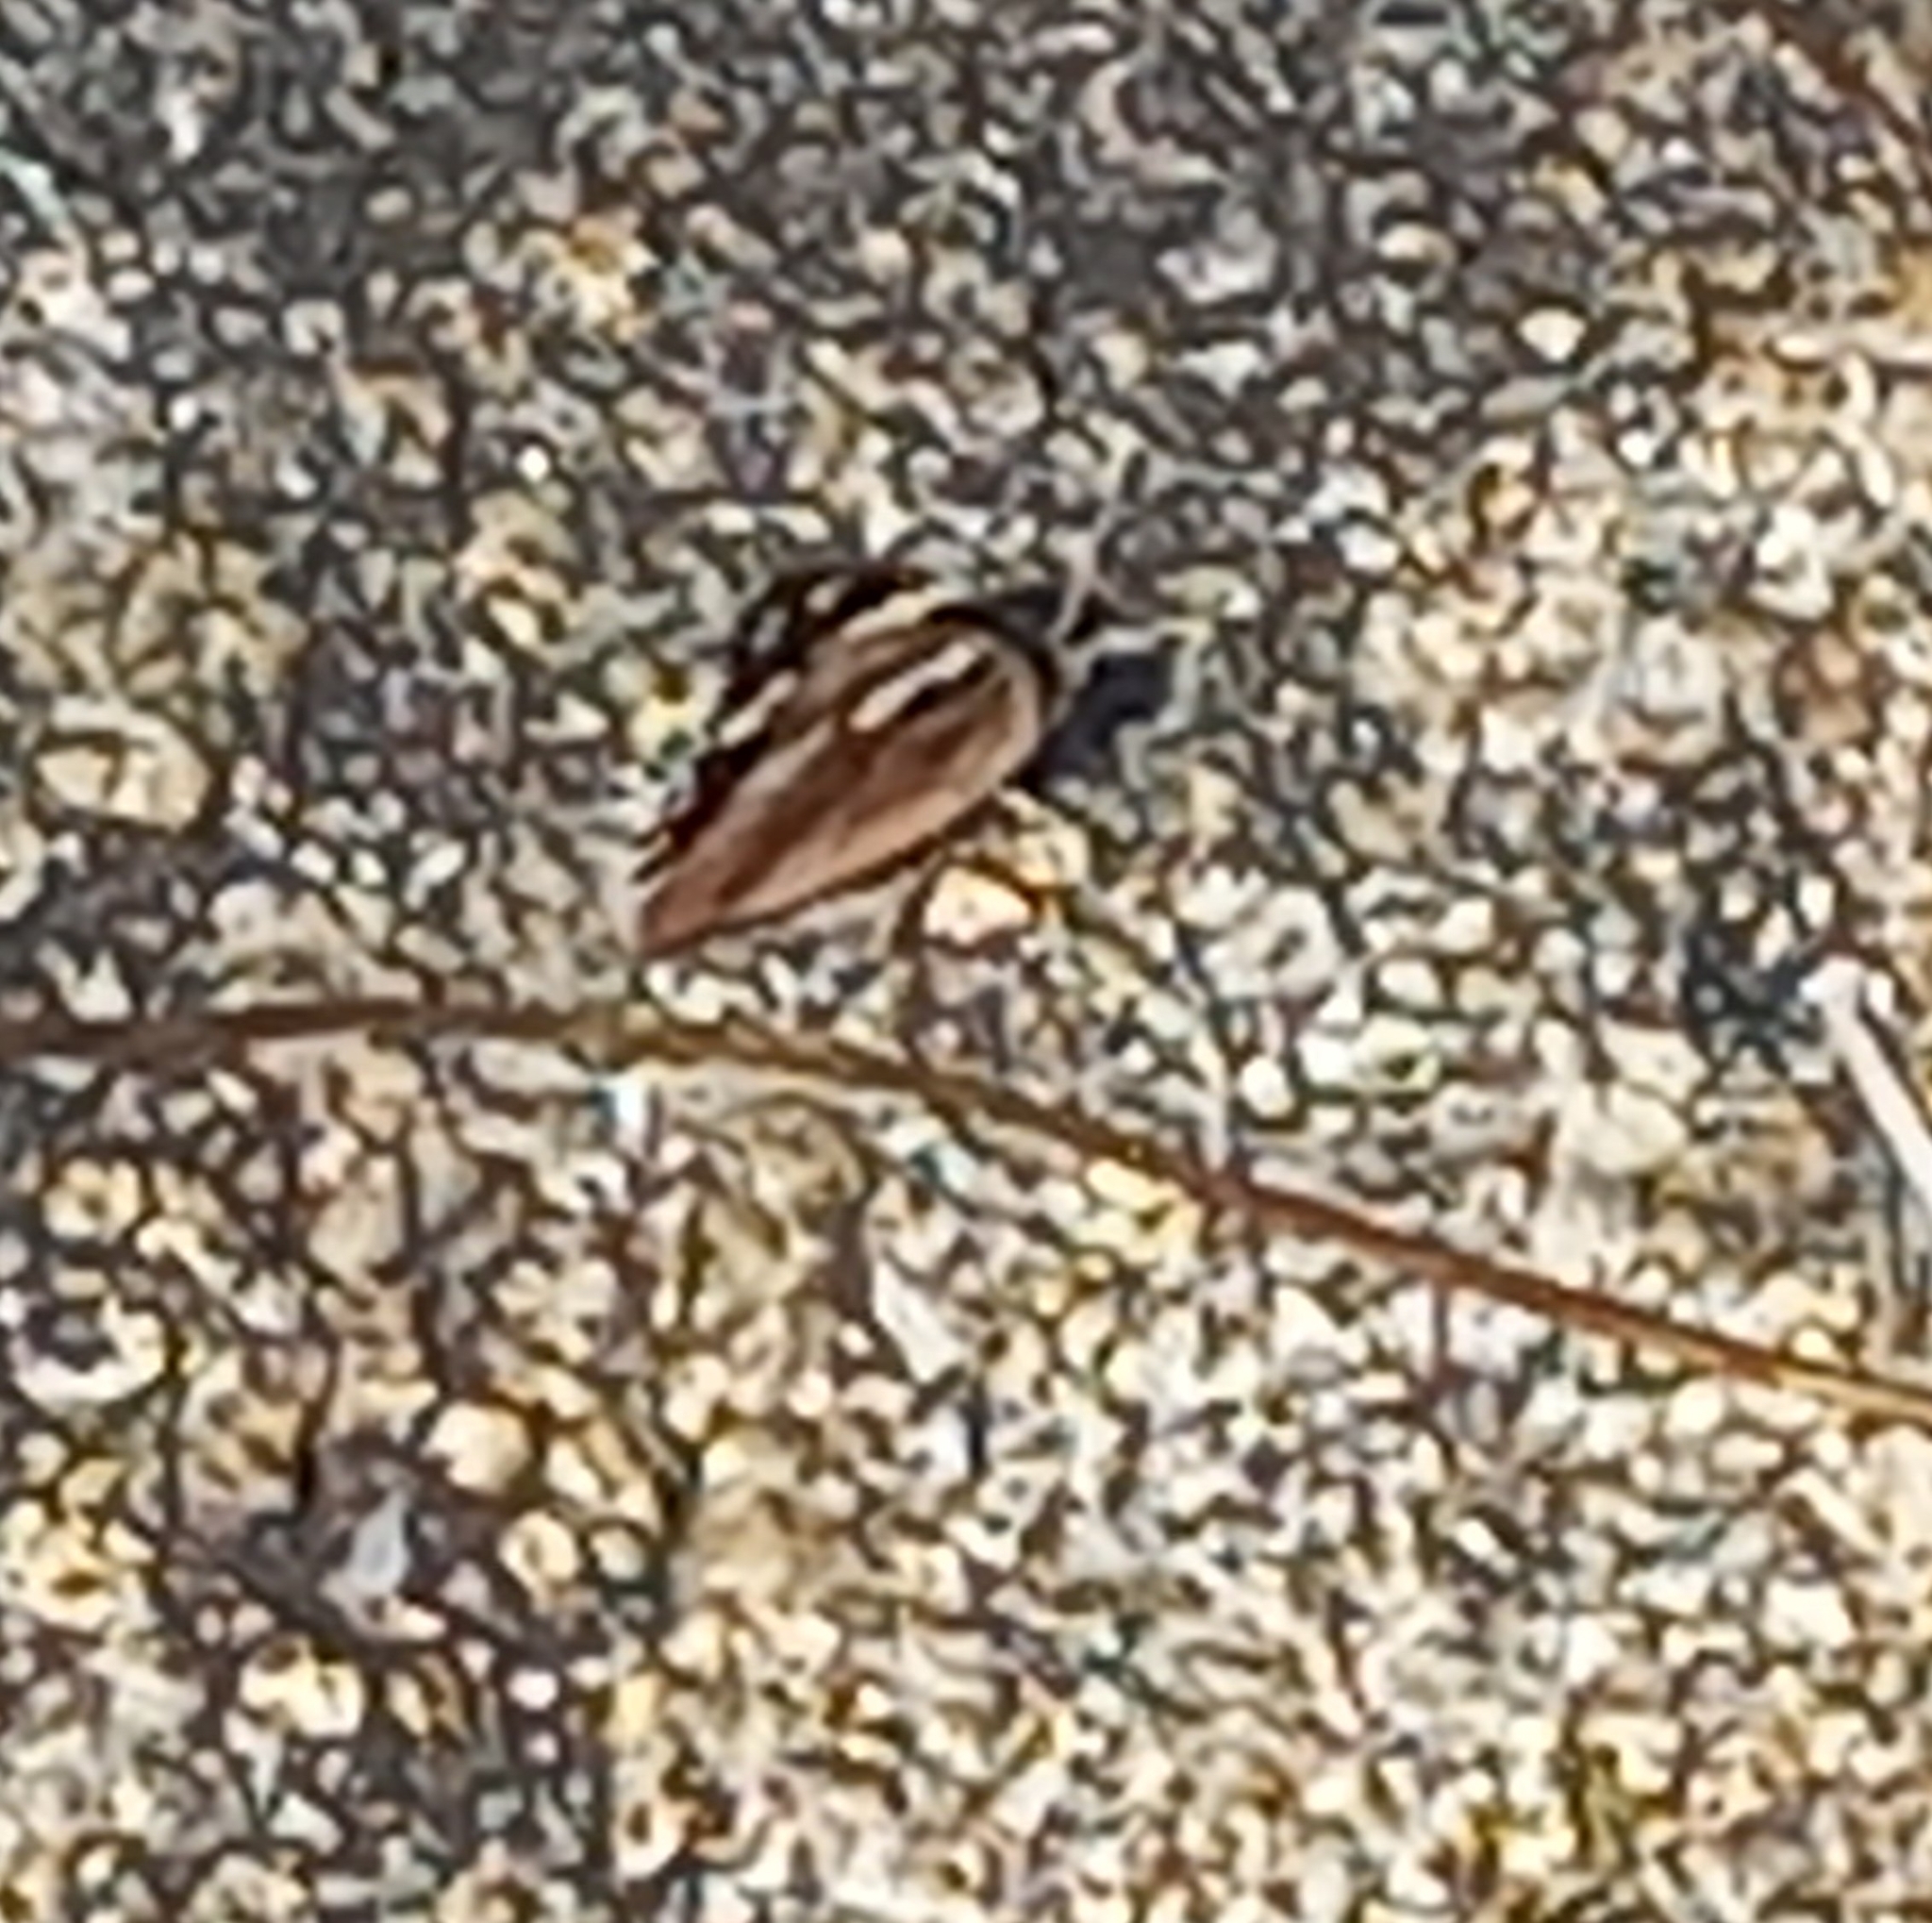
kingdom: Animalia
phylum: Arthropoda
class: Insecta
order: Lepidoptera
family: Nymphalidae
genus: Junonia
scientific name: Junonia oenone
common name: Dark blue pansy
